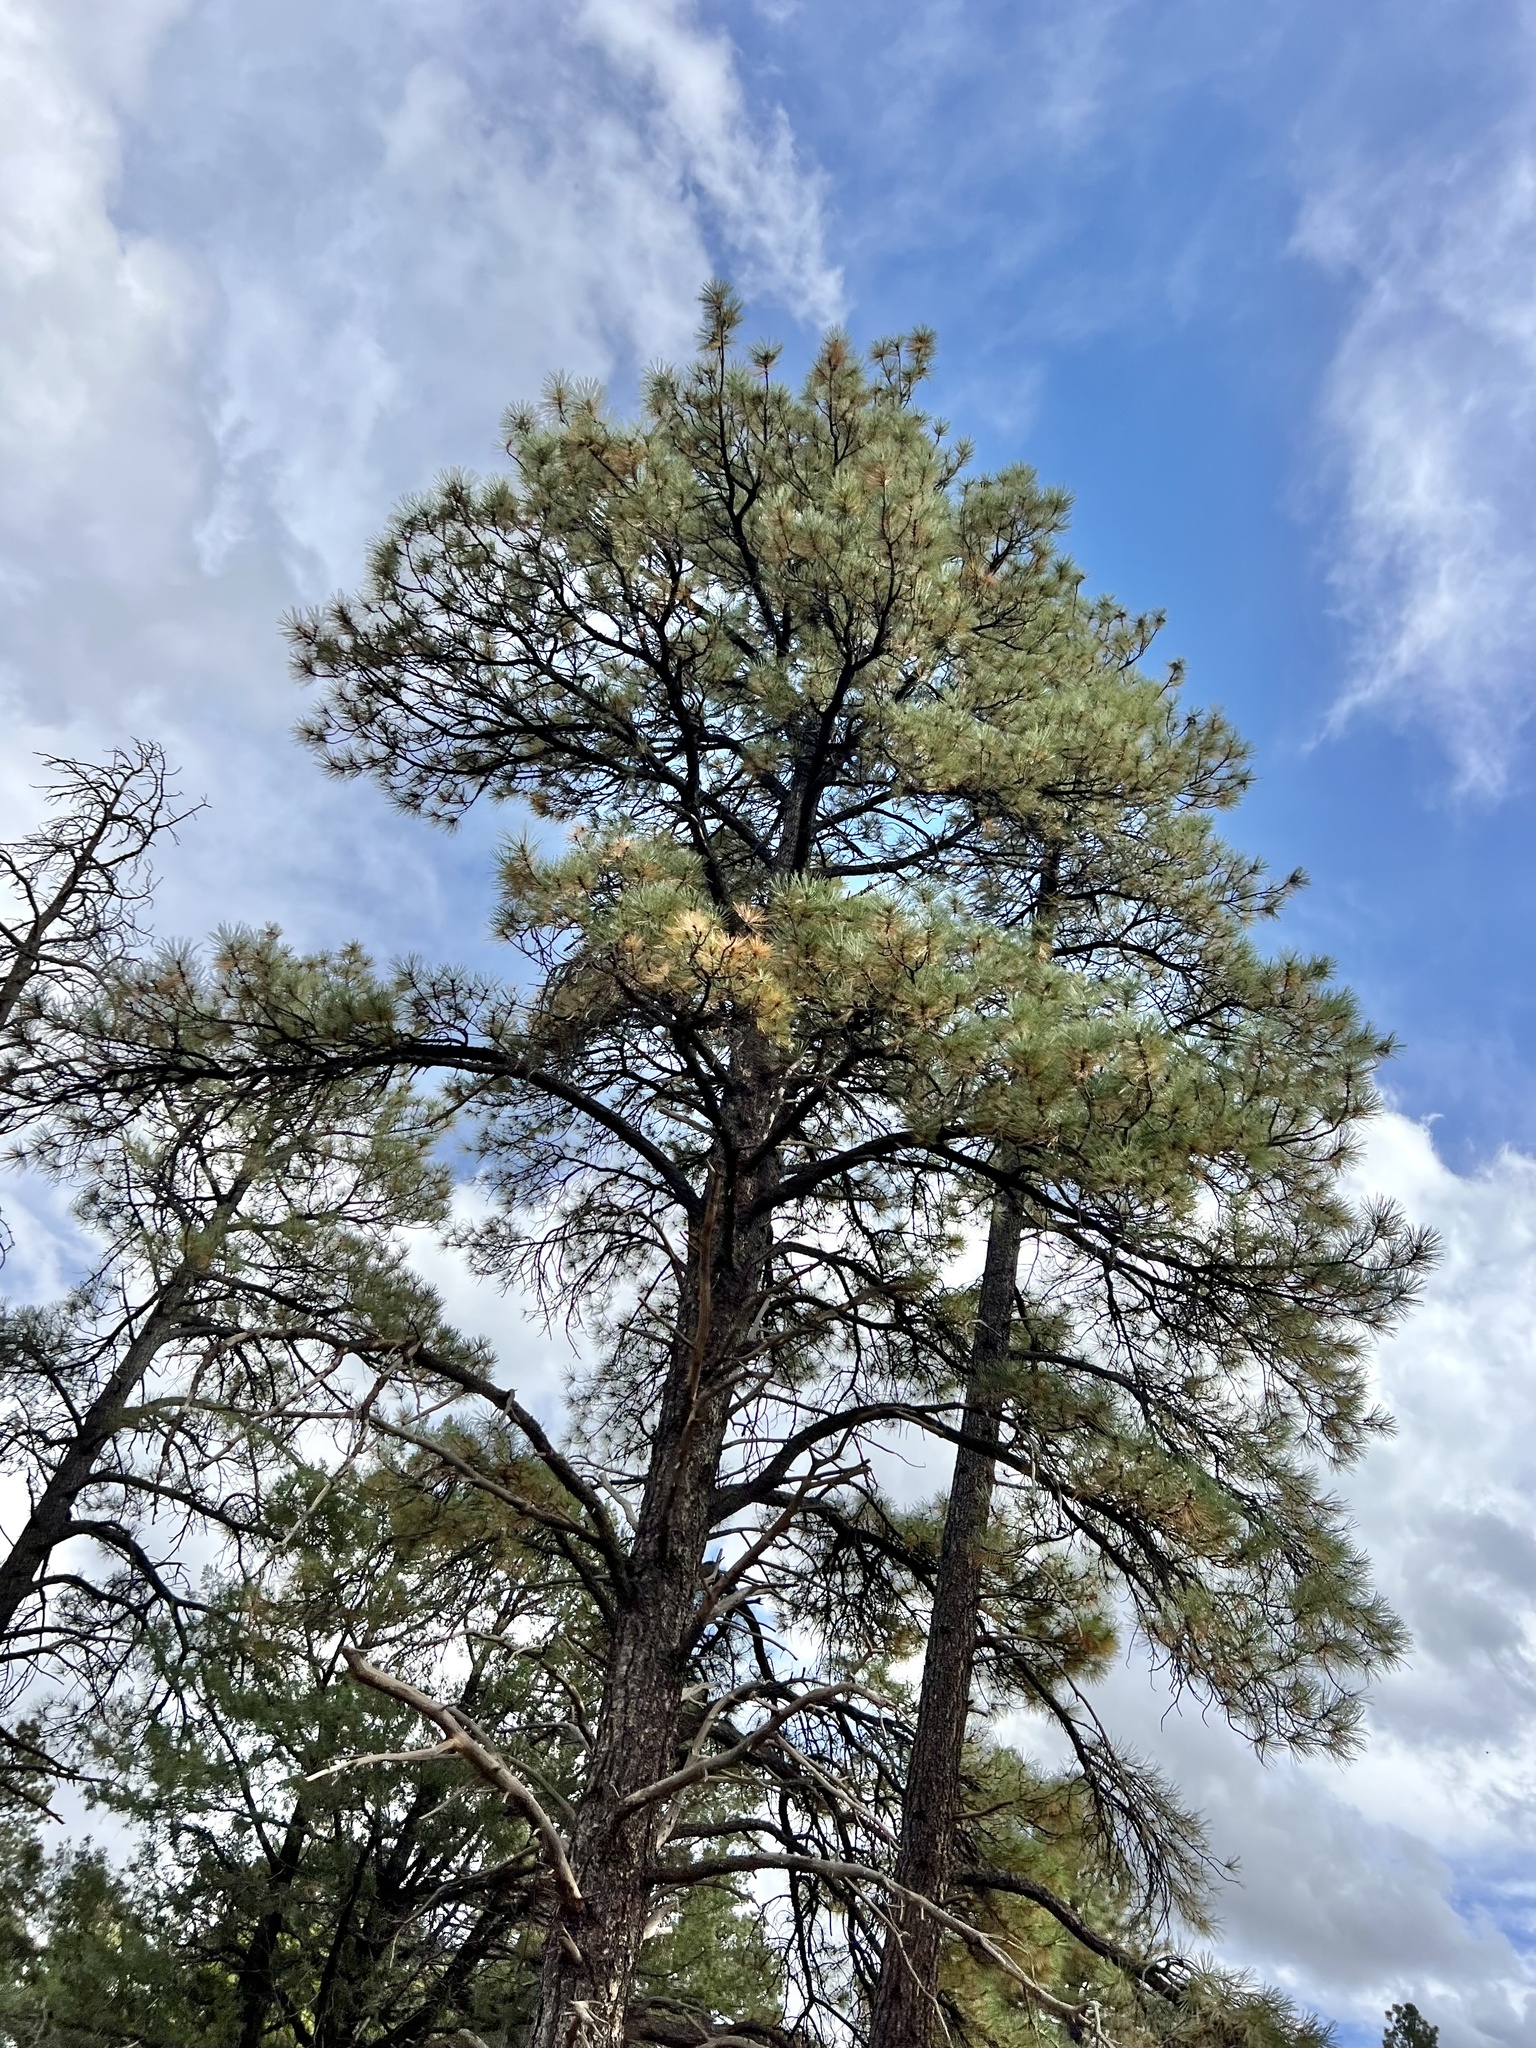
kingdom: Plantae
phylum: Tracheophyta
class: Pinopsida
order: Pinales
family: Pinaceae
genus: Pinus
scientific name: Pinus ponderosa
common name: Western yellow-pine
